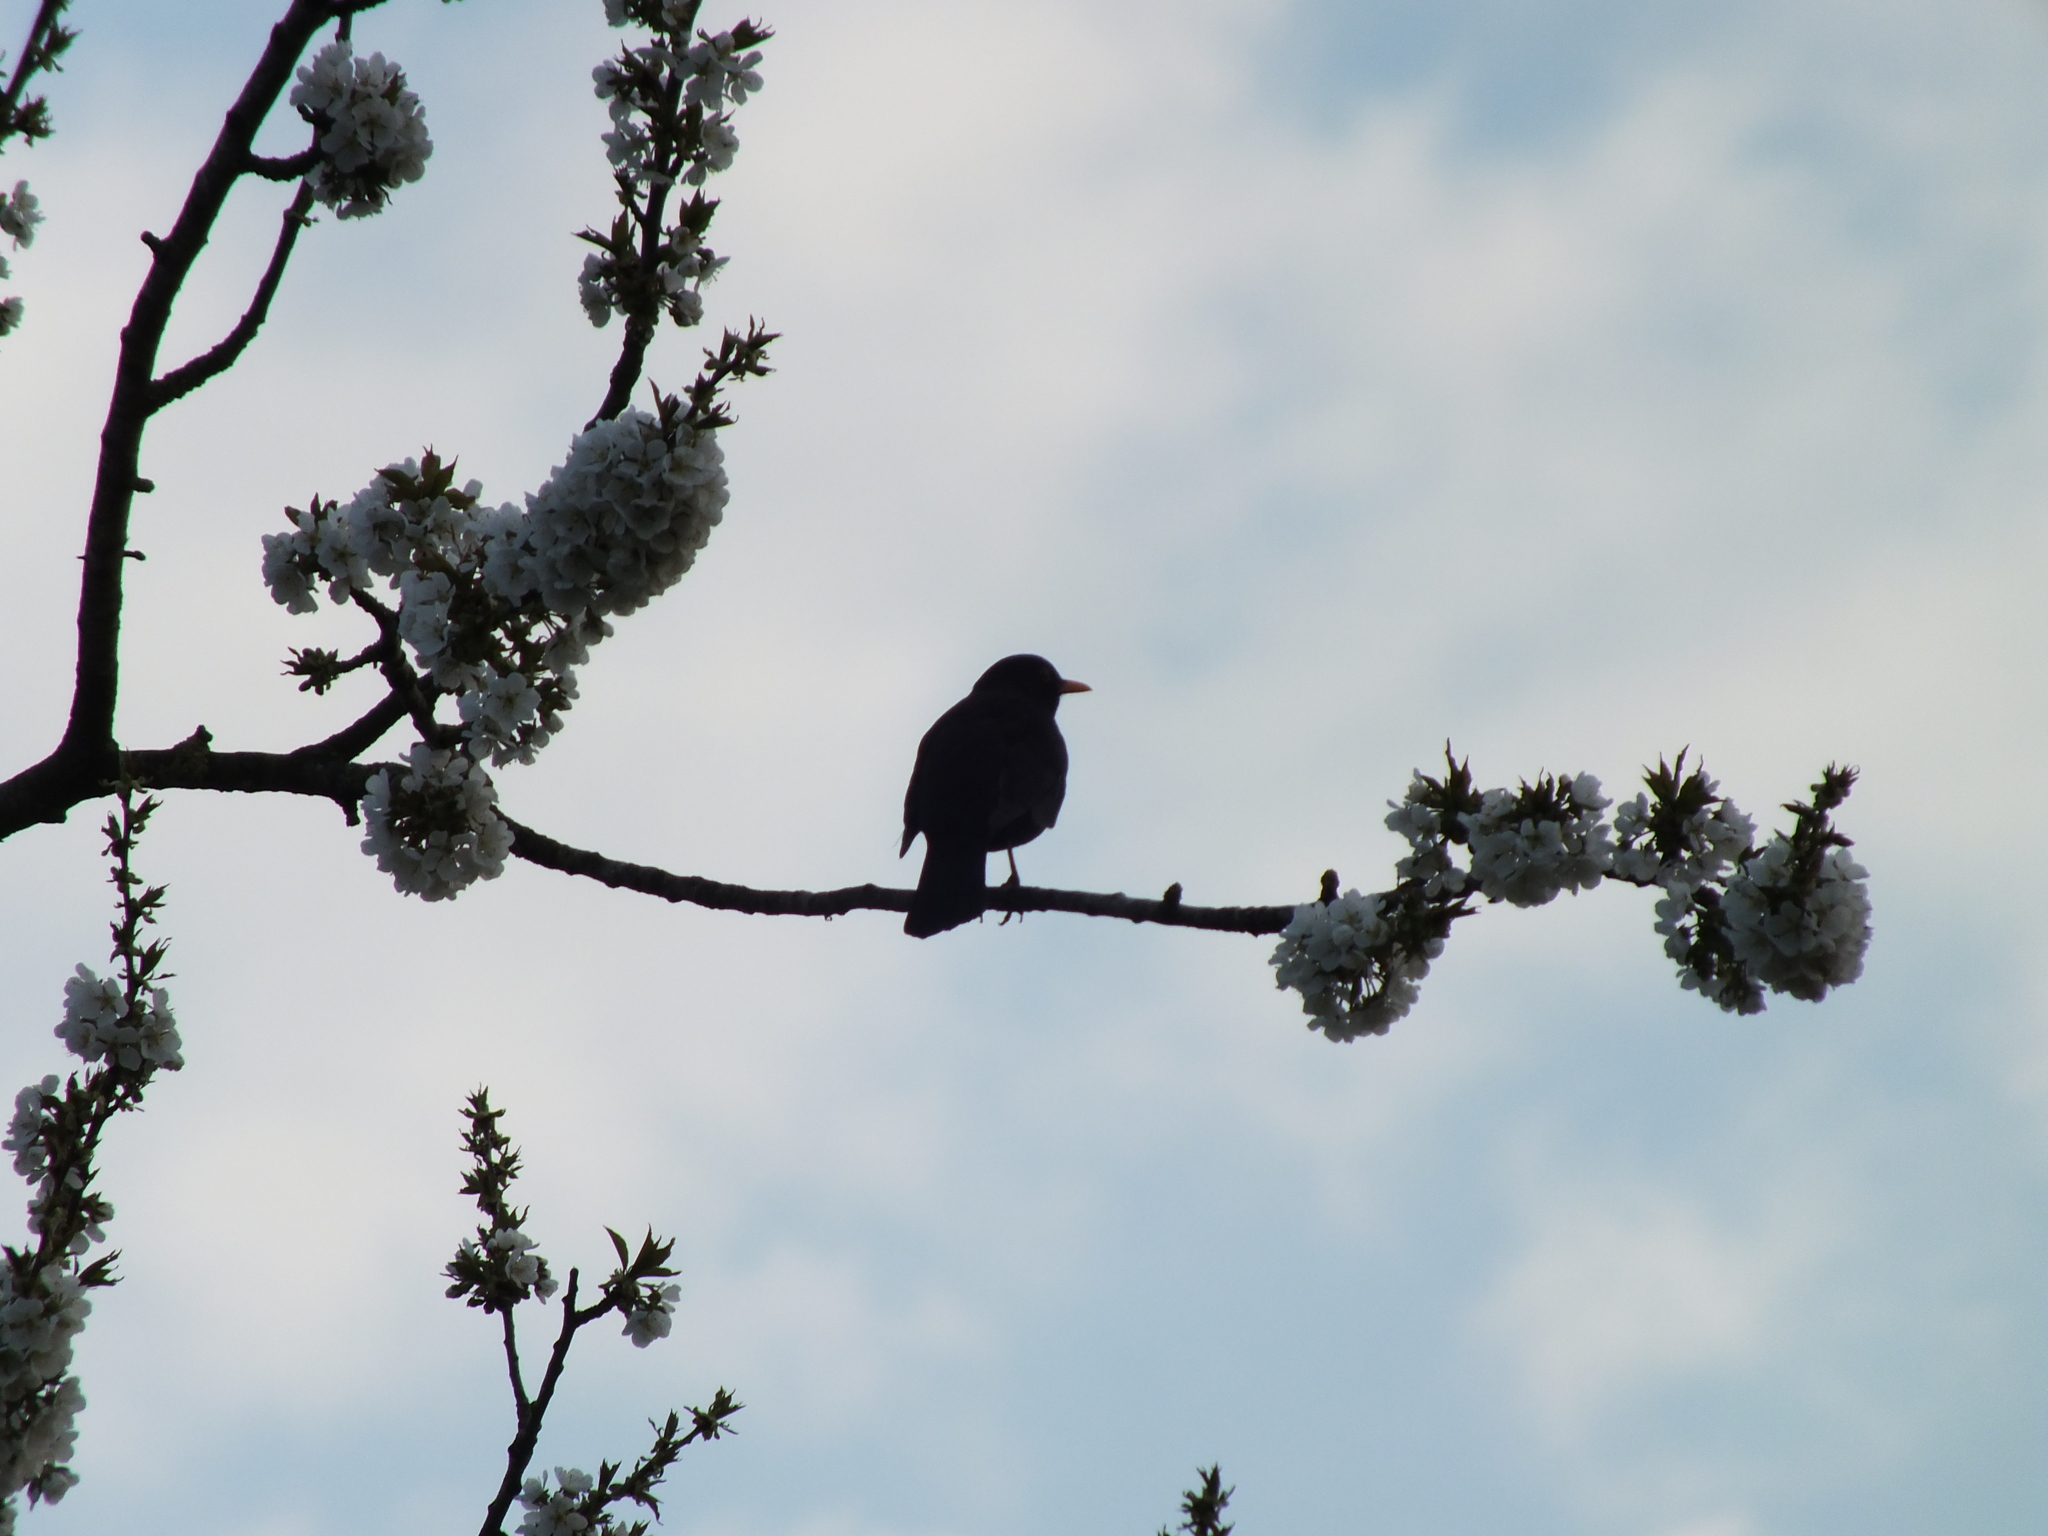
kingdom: Animalia
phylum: Chordata
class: Aves
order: Passeriformes
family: Turdidae
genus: Turdus
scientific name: Turdus merula
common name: Common blackbird
